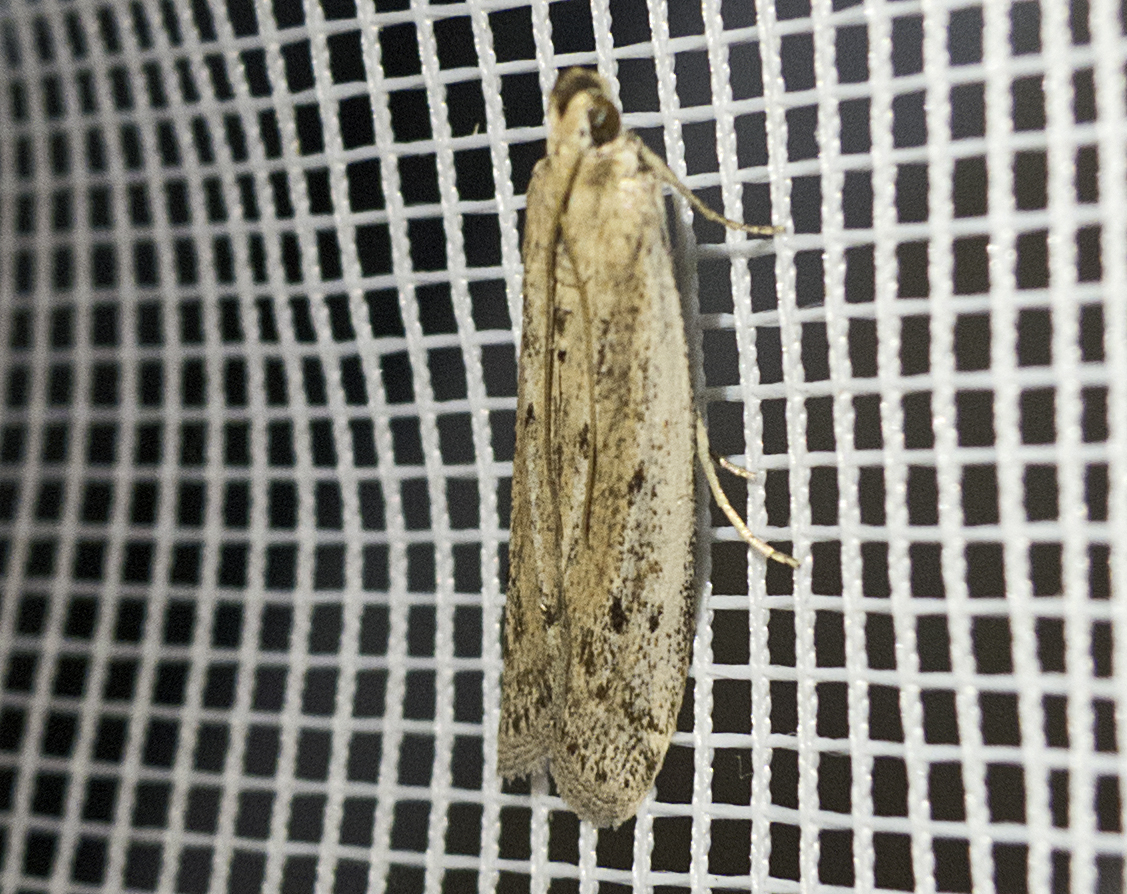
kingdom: Animalia
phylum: Arthropoda
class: Insecta
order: Lepidoptera
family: Pyralidae
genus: Homoeosoma
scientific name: Homoeosoma
